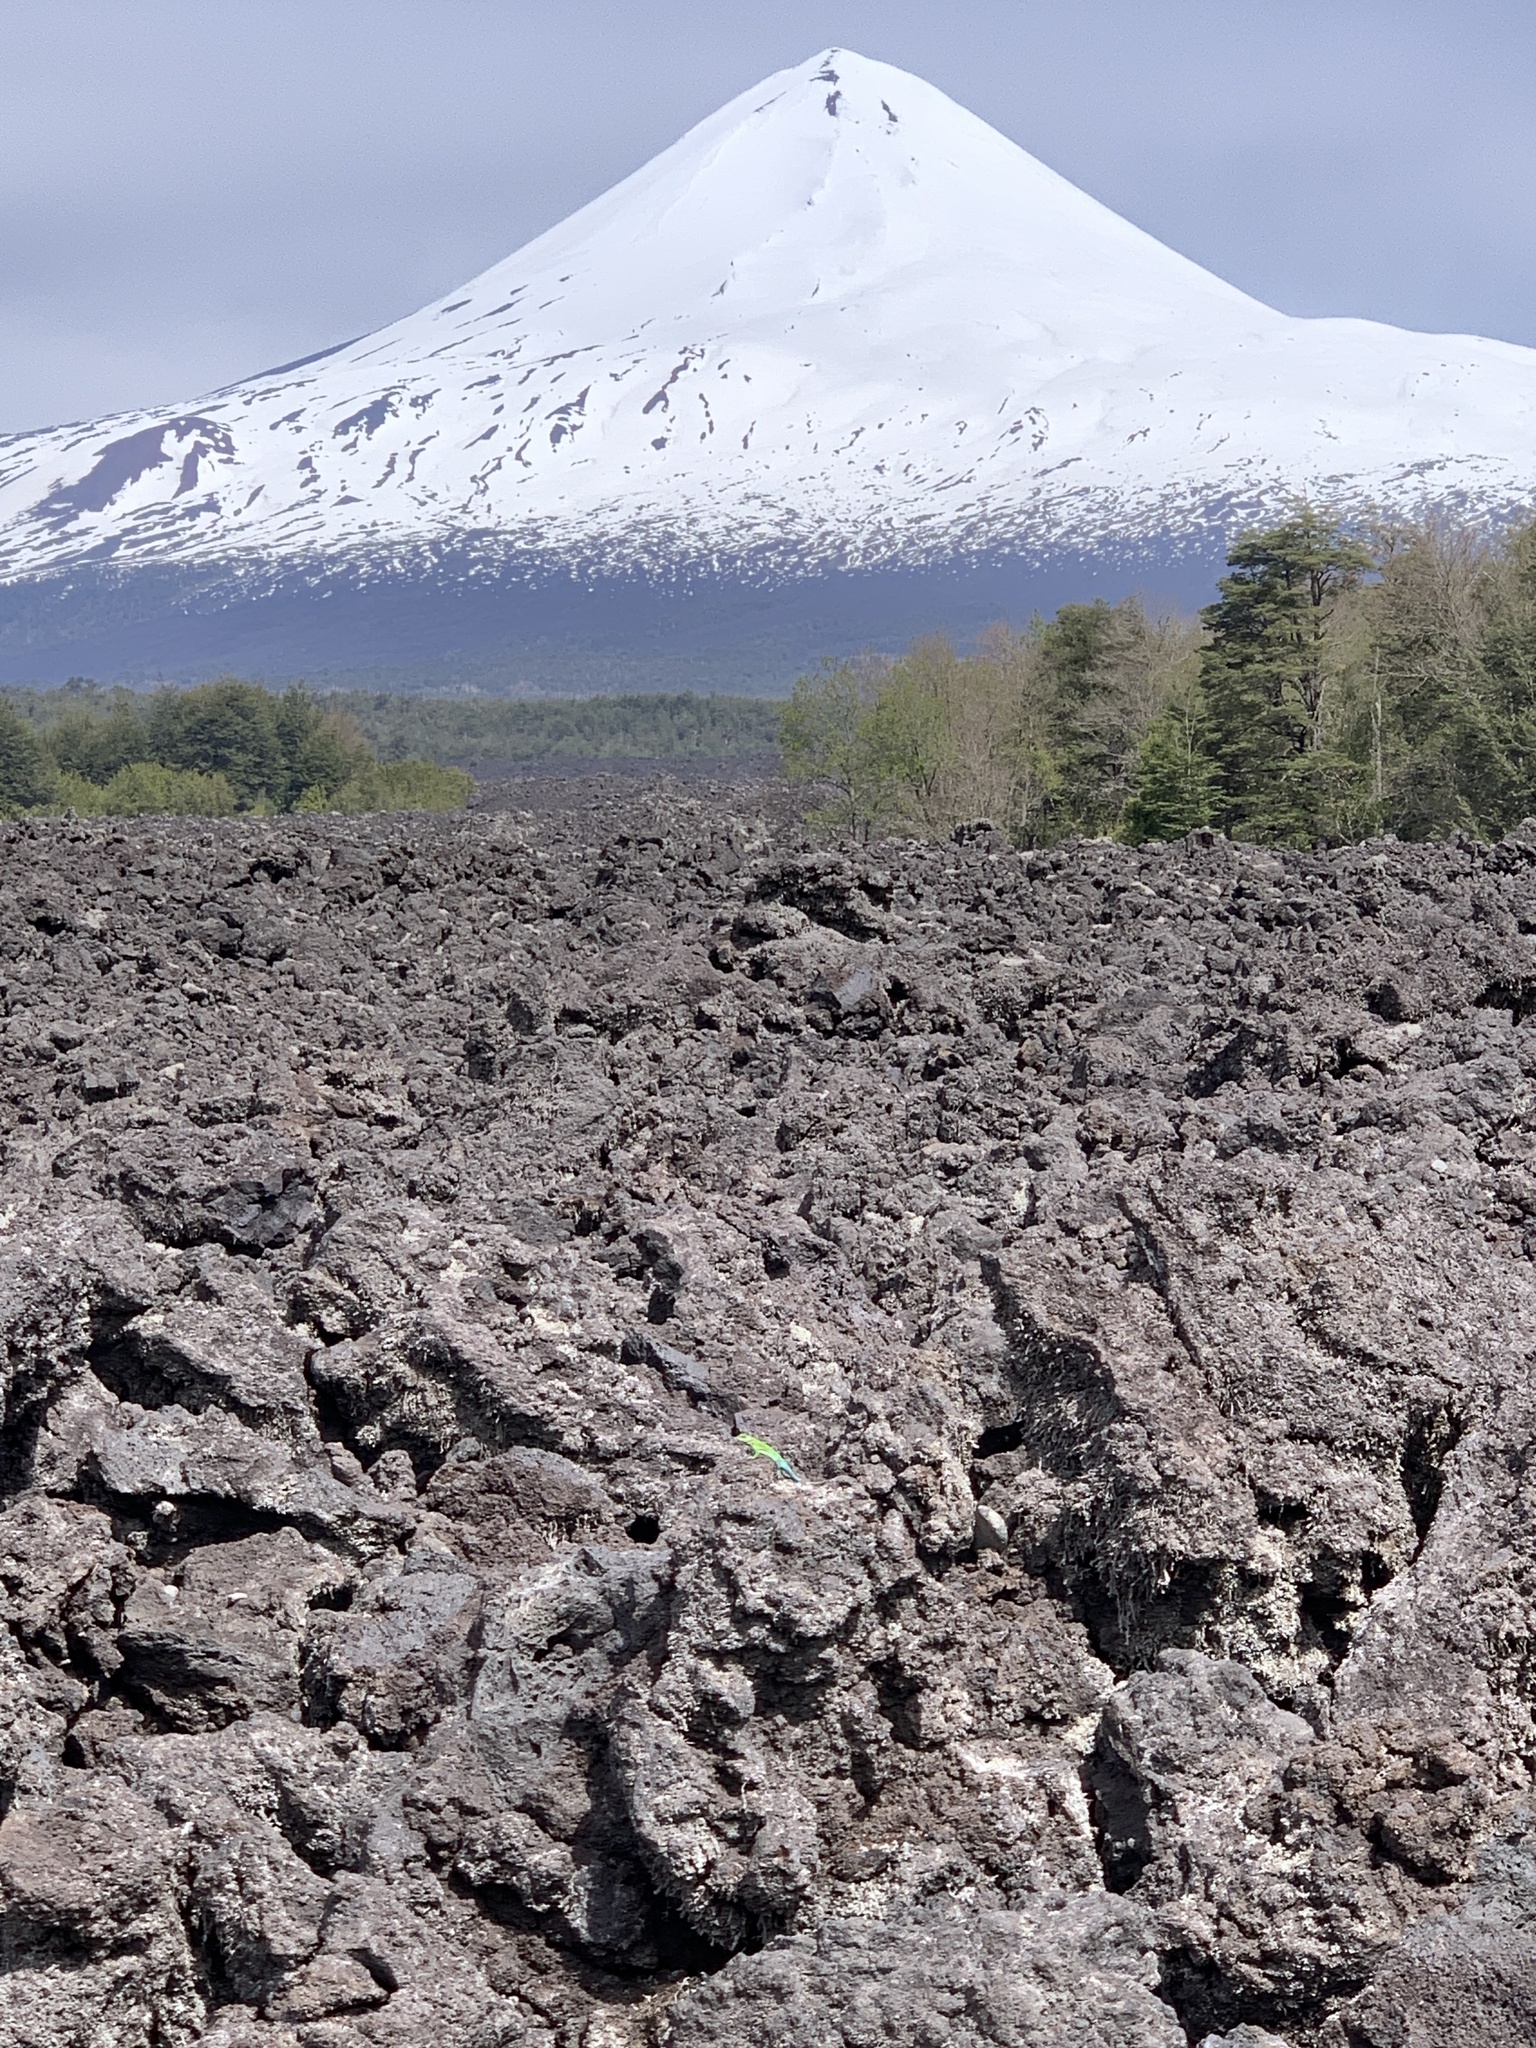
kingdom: Animalia
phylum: Chordata
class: Squamata
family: Liolaemidae
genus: Liolaemus
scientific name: Liolaemus tenuis
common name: Thin tree iguana
